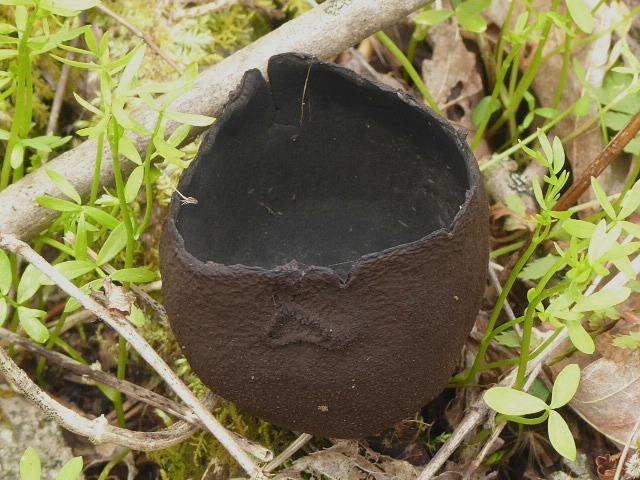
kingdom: Fungi
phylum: Ascomycota
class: Pezizomycetes
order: Pezizales
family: Sarcosomataceae
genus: Urnula
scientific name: Urnula craterium
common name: Devil's urn
